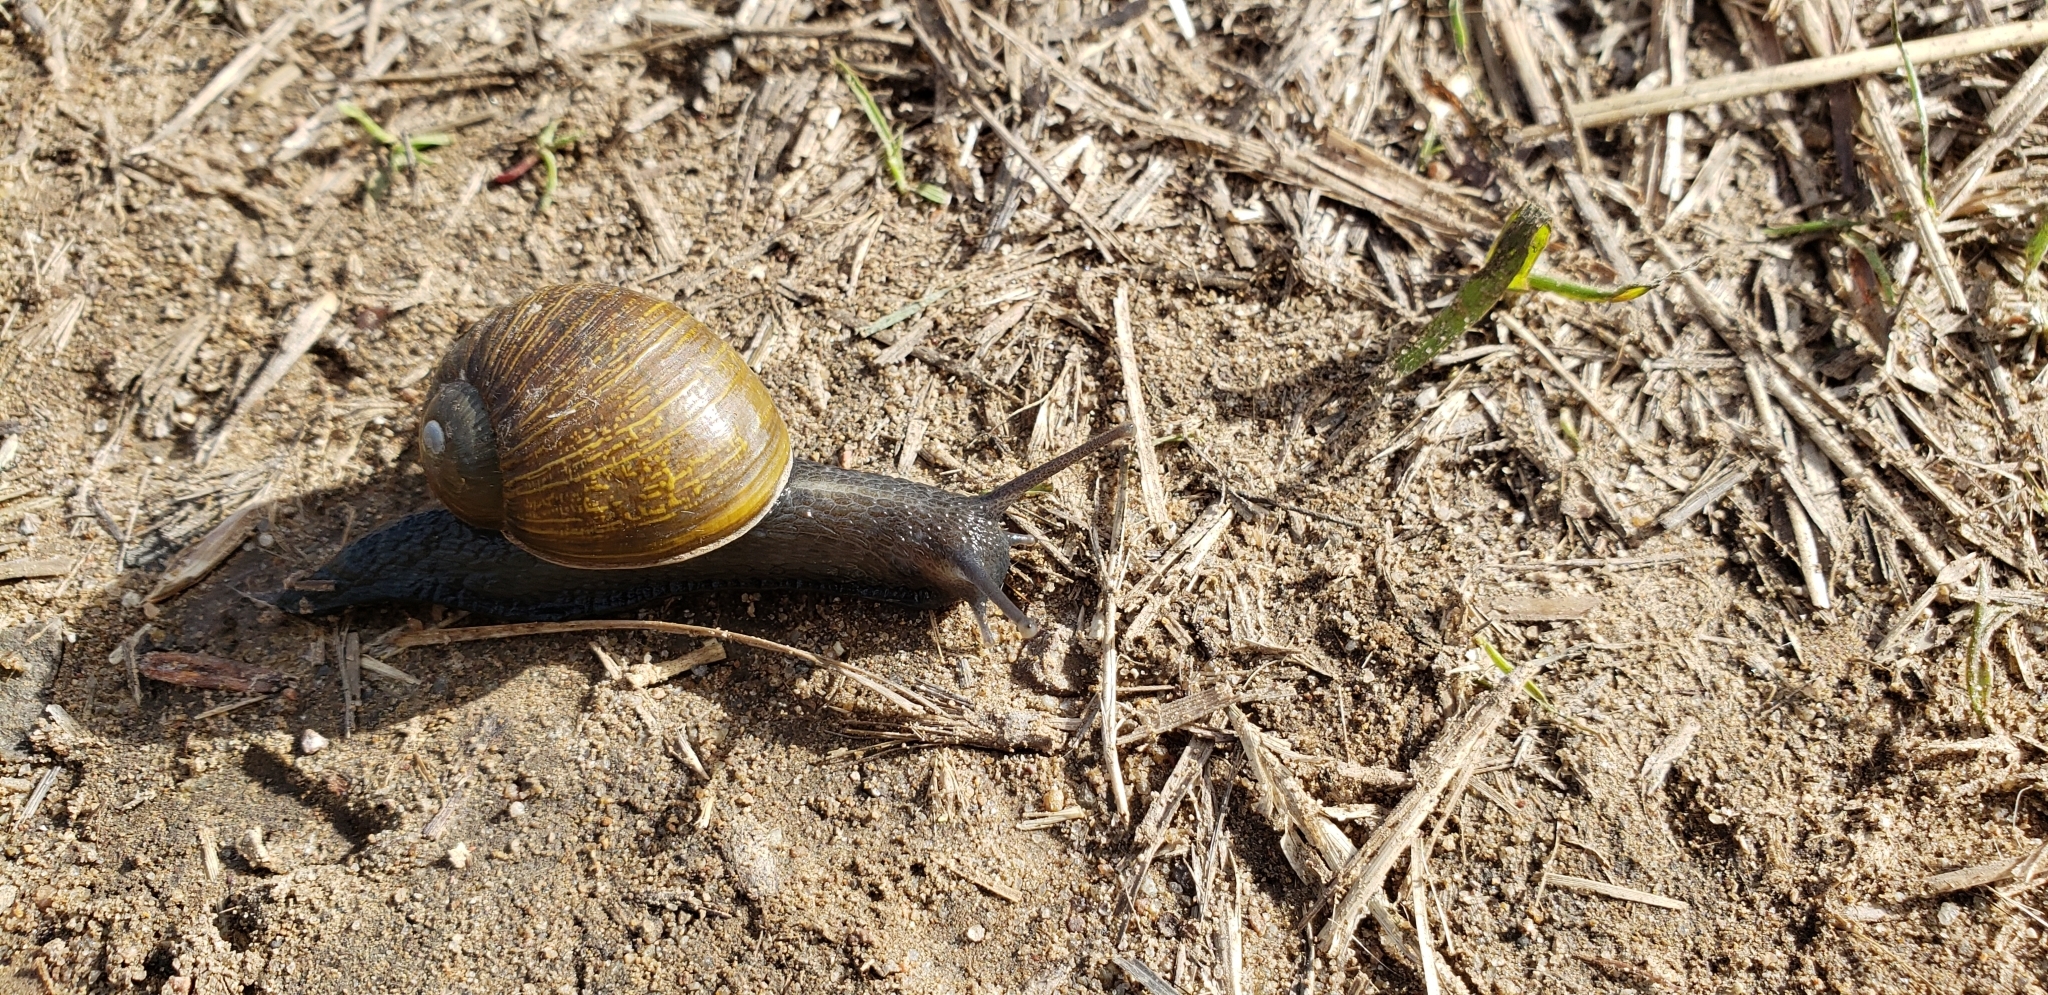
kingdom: Animalia
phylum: Mollusca
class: Gastropoda
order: Stylommatophora
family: Helicidae
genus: Cantareus
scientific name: Cantareus apertus
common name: Green gardensnail
